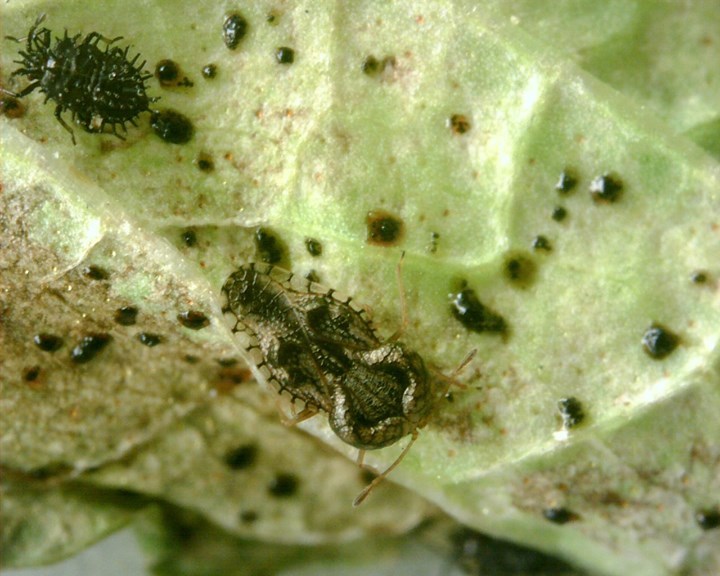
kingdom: Animalia
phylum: Arthropoda
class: Insecta
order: Hemiptera
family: Tingidae
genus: Cochlochila
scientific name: Cochlochila bullita
